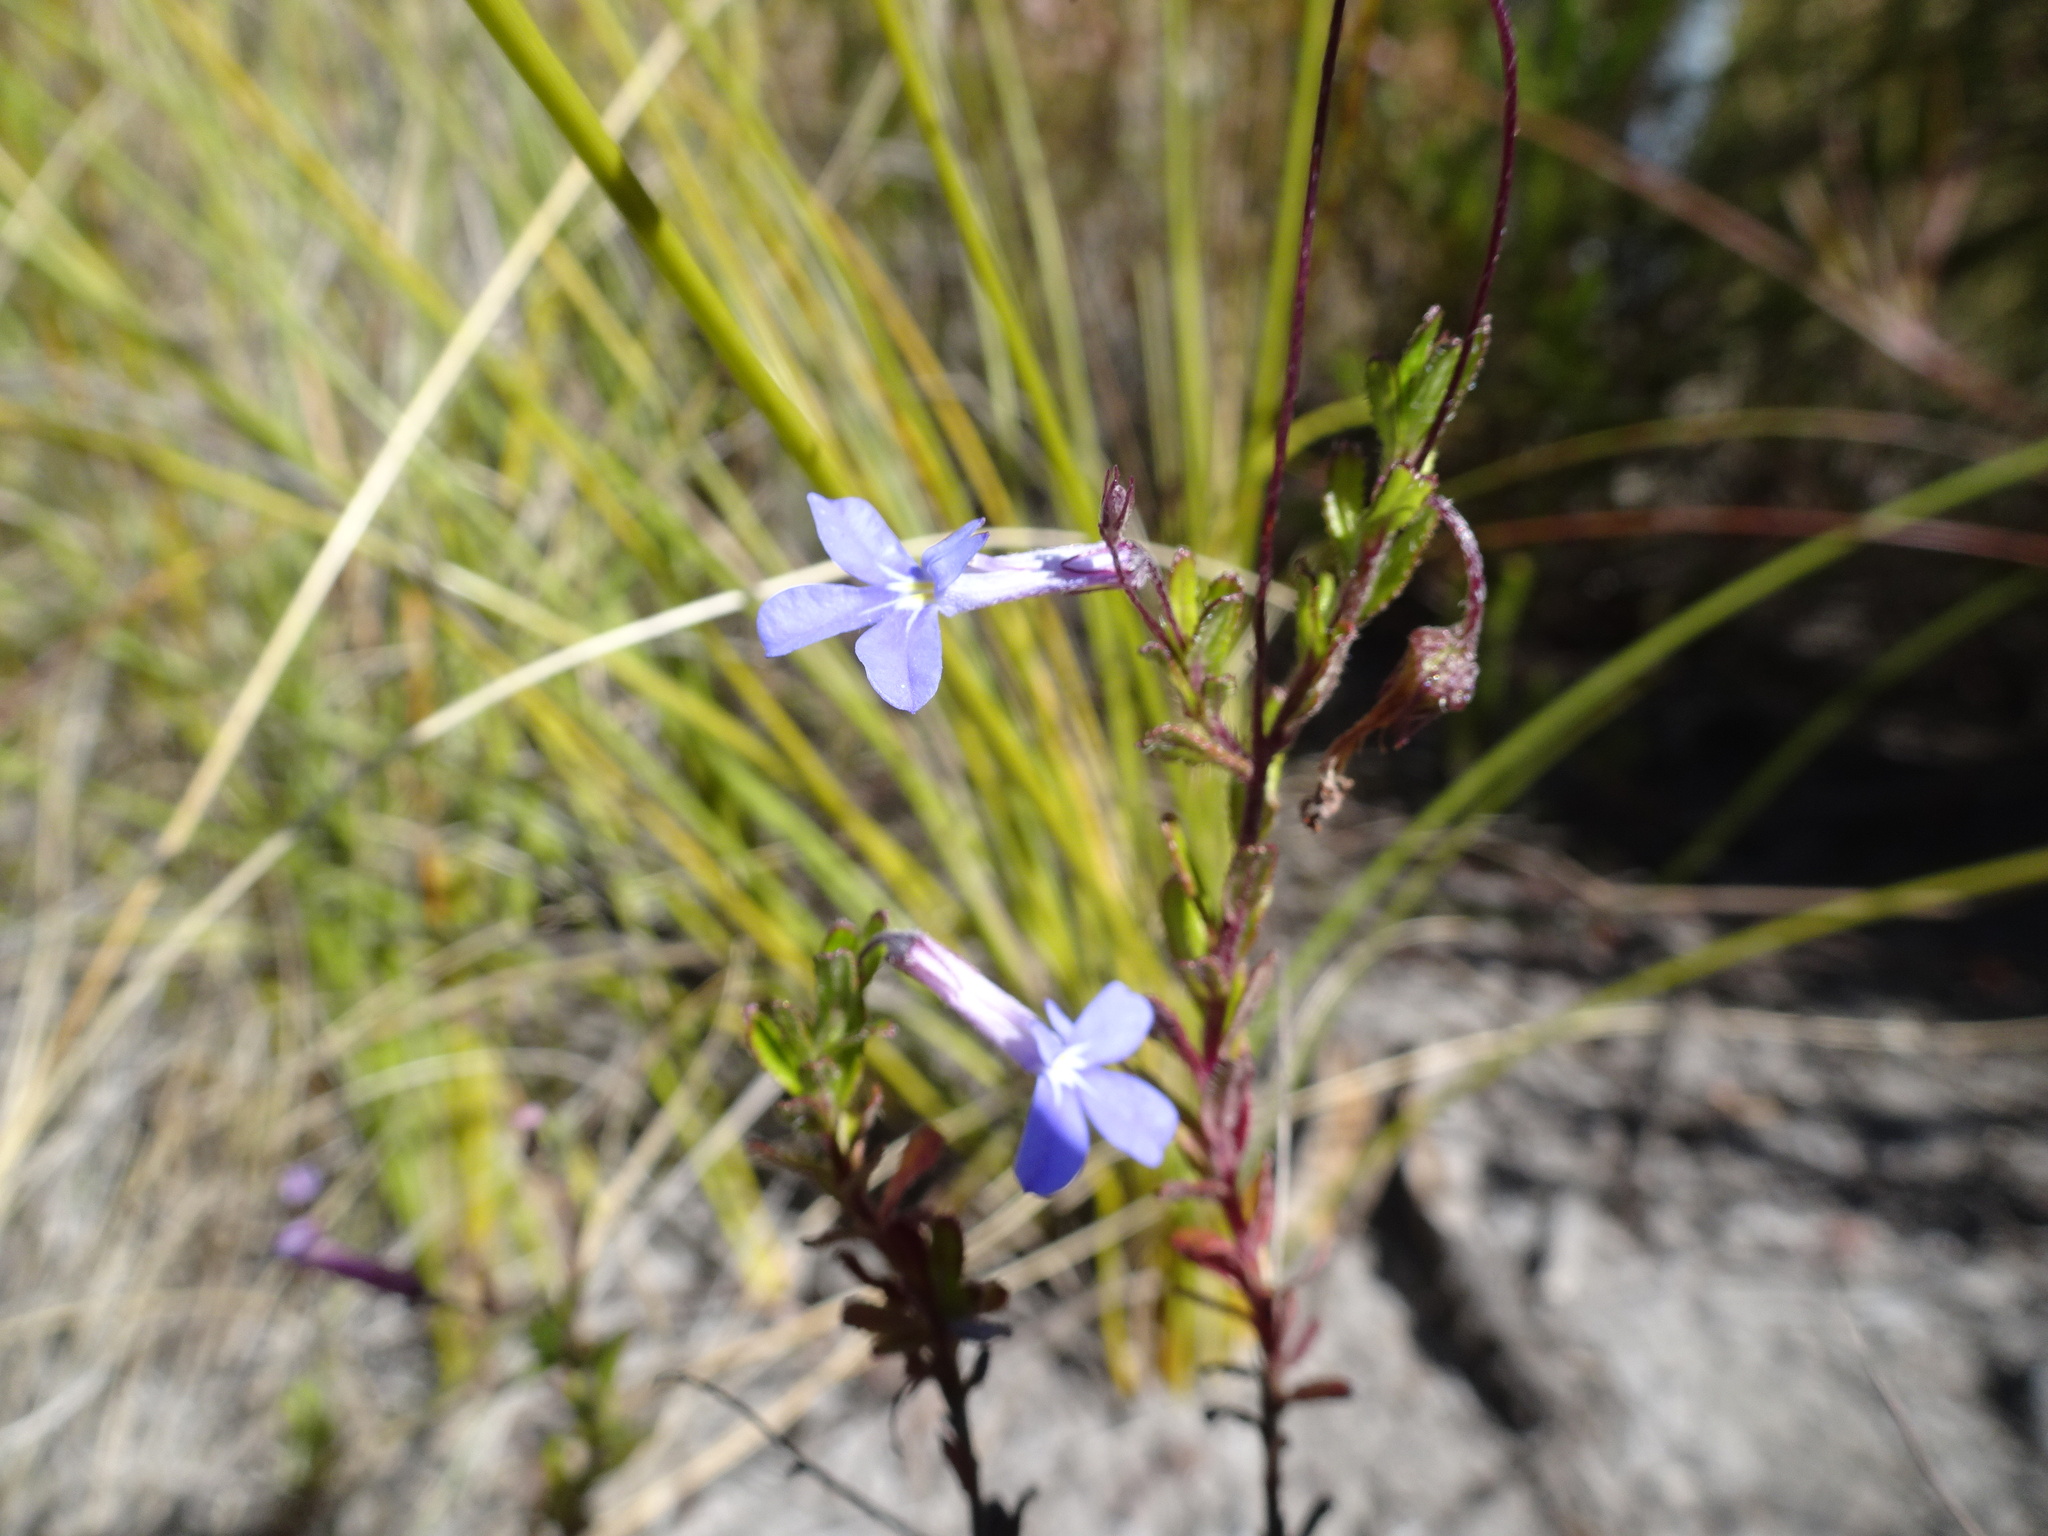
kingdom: Plantae
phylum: Tracheophyta
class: Magnoliopsida
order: Asterales
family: Campanulaceae
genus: Lobelia
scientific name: Lobelia neglecta
